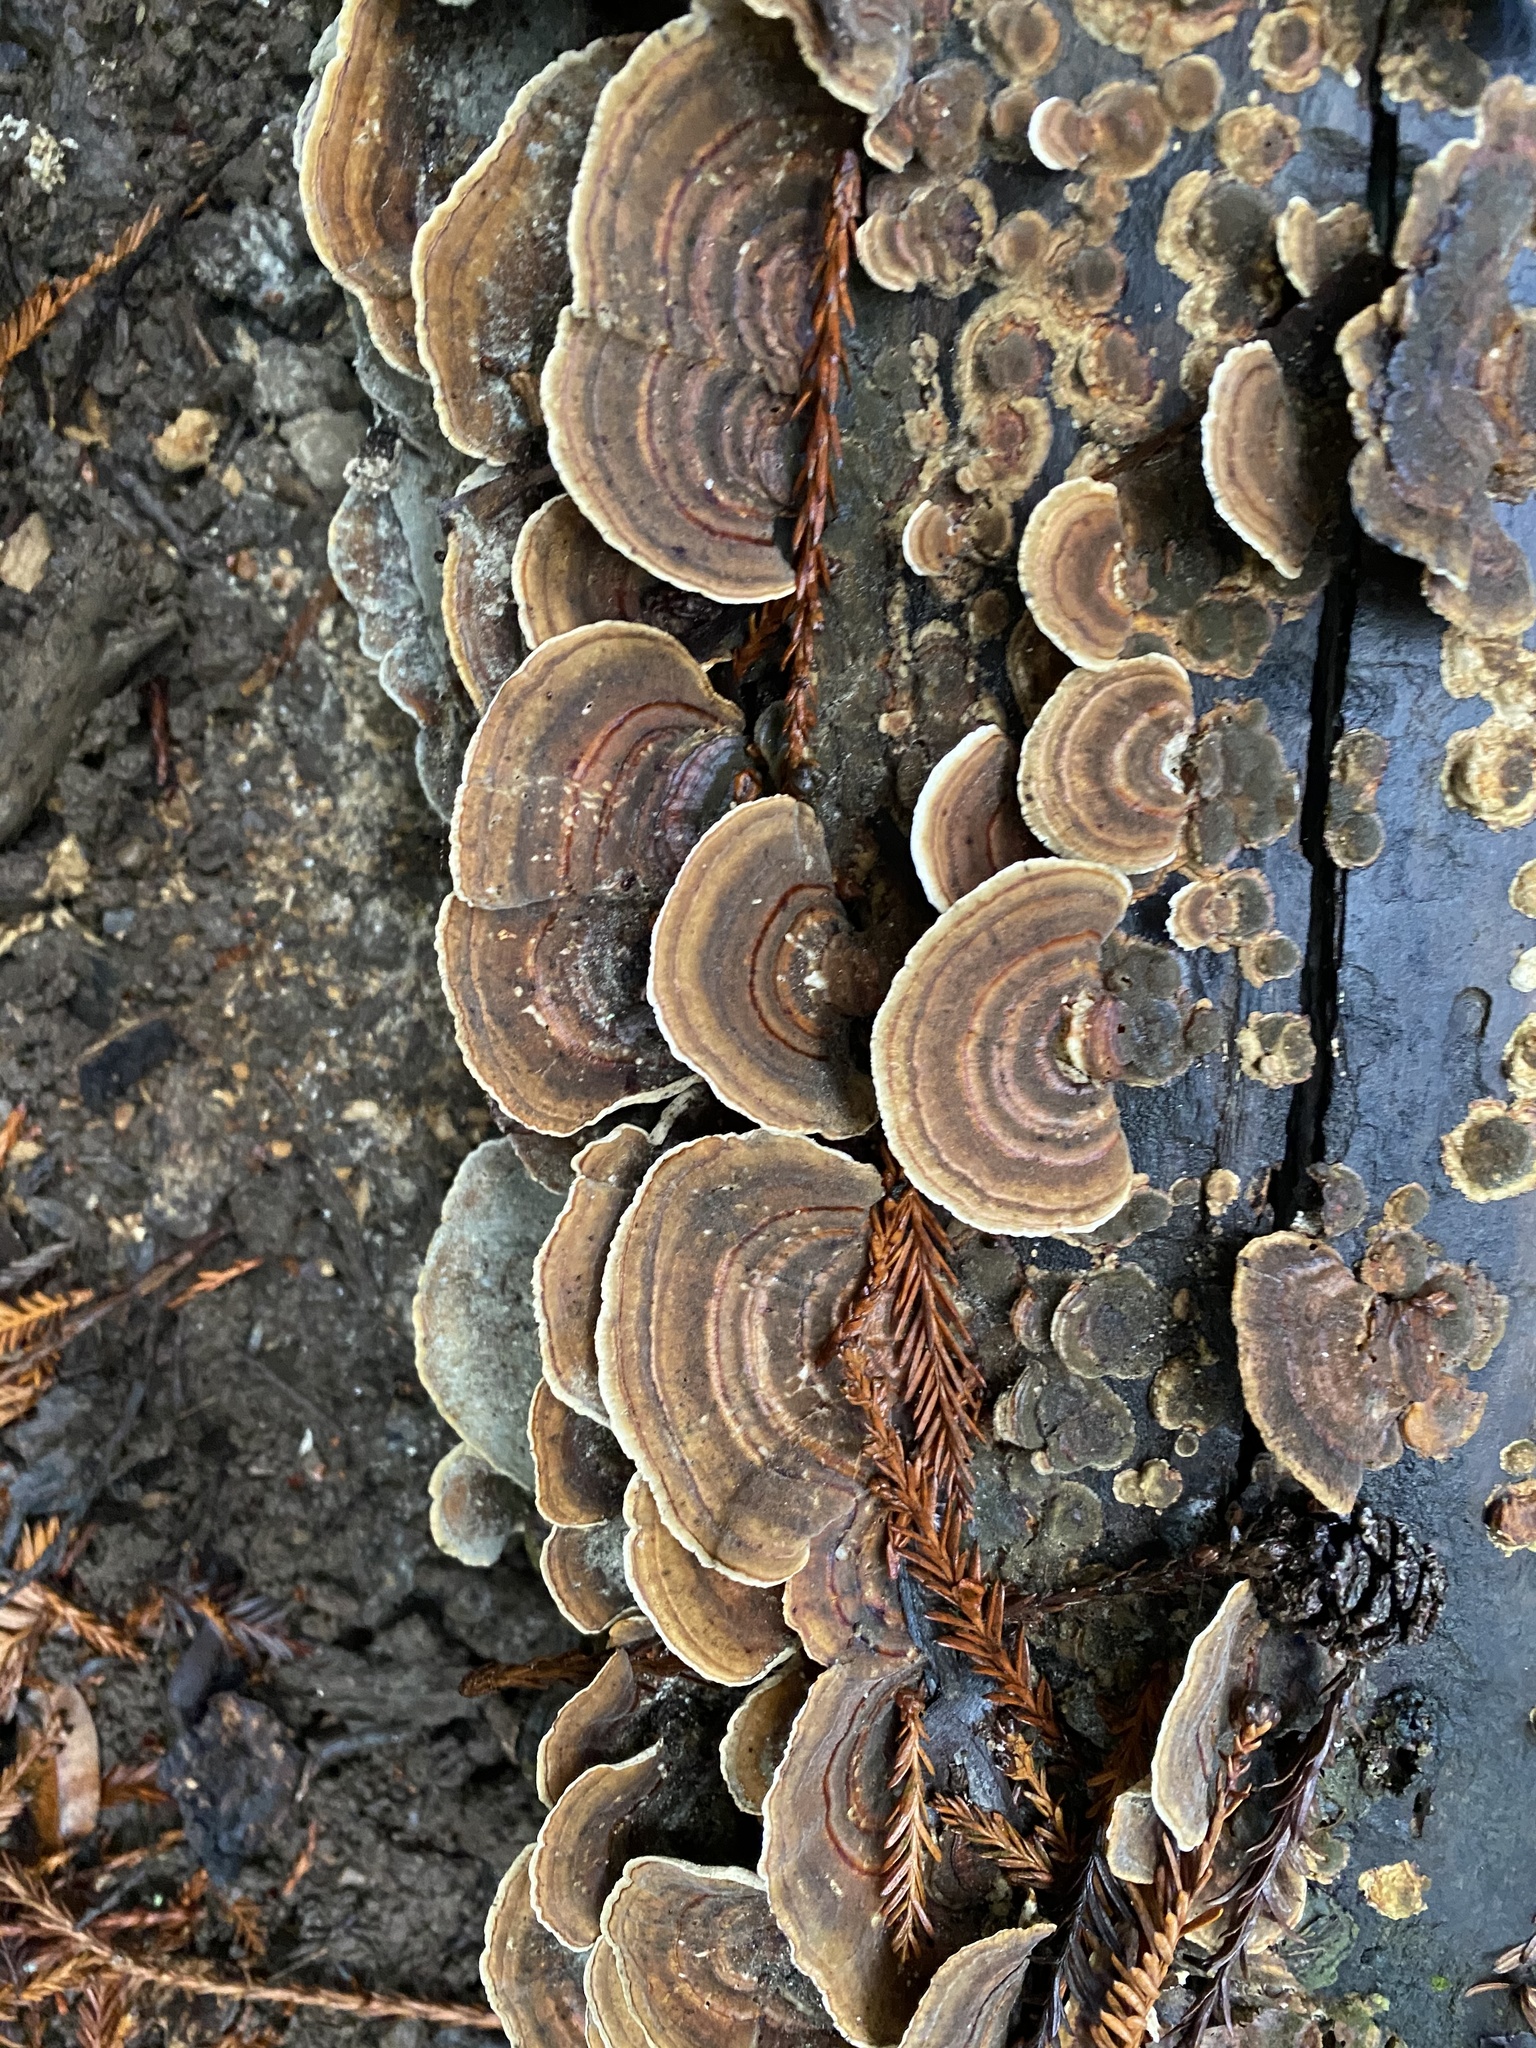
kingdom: Fungi
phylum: Basidiomycota
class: Agaricomycetes
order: Polyporales
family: Polyporaceae
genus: Trametes
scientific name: Trametes versicolor
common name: Turkeytail
